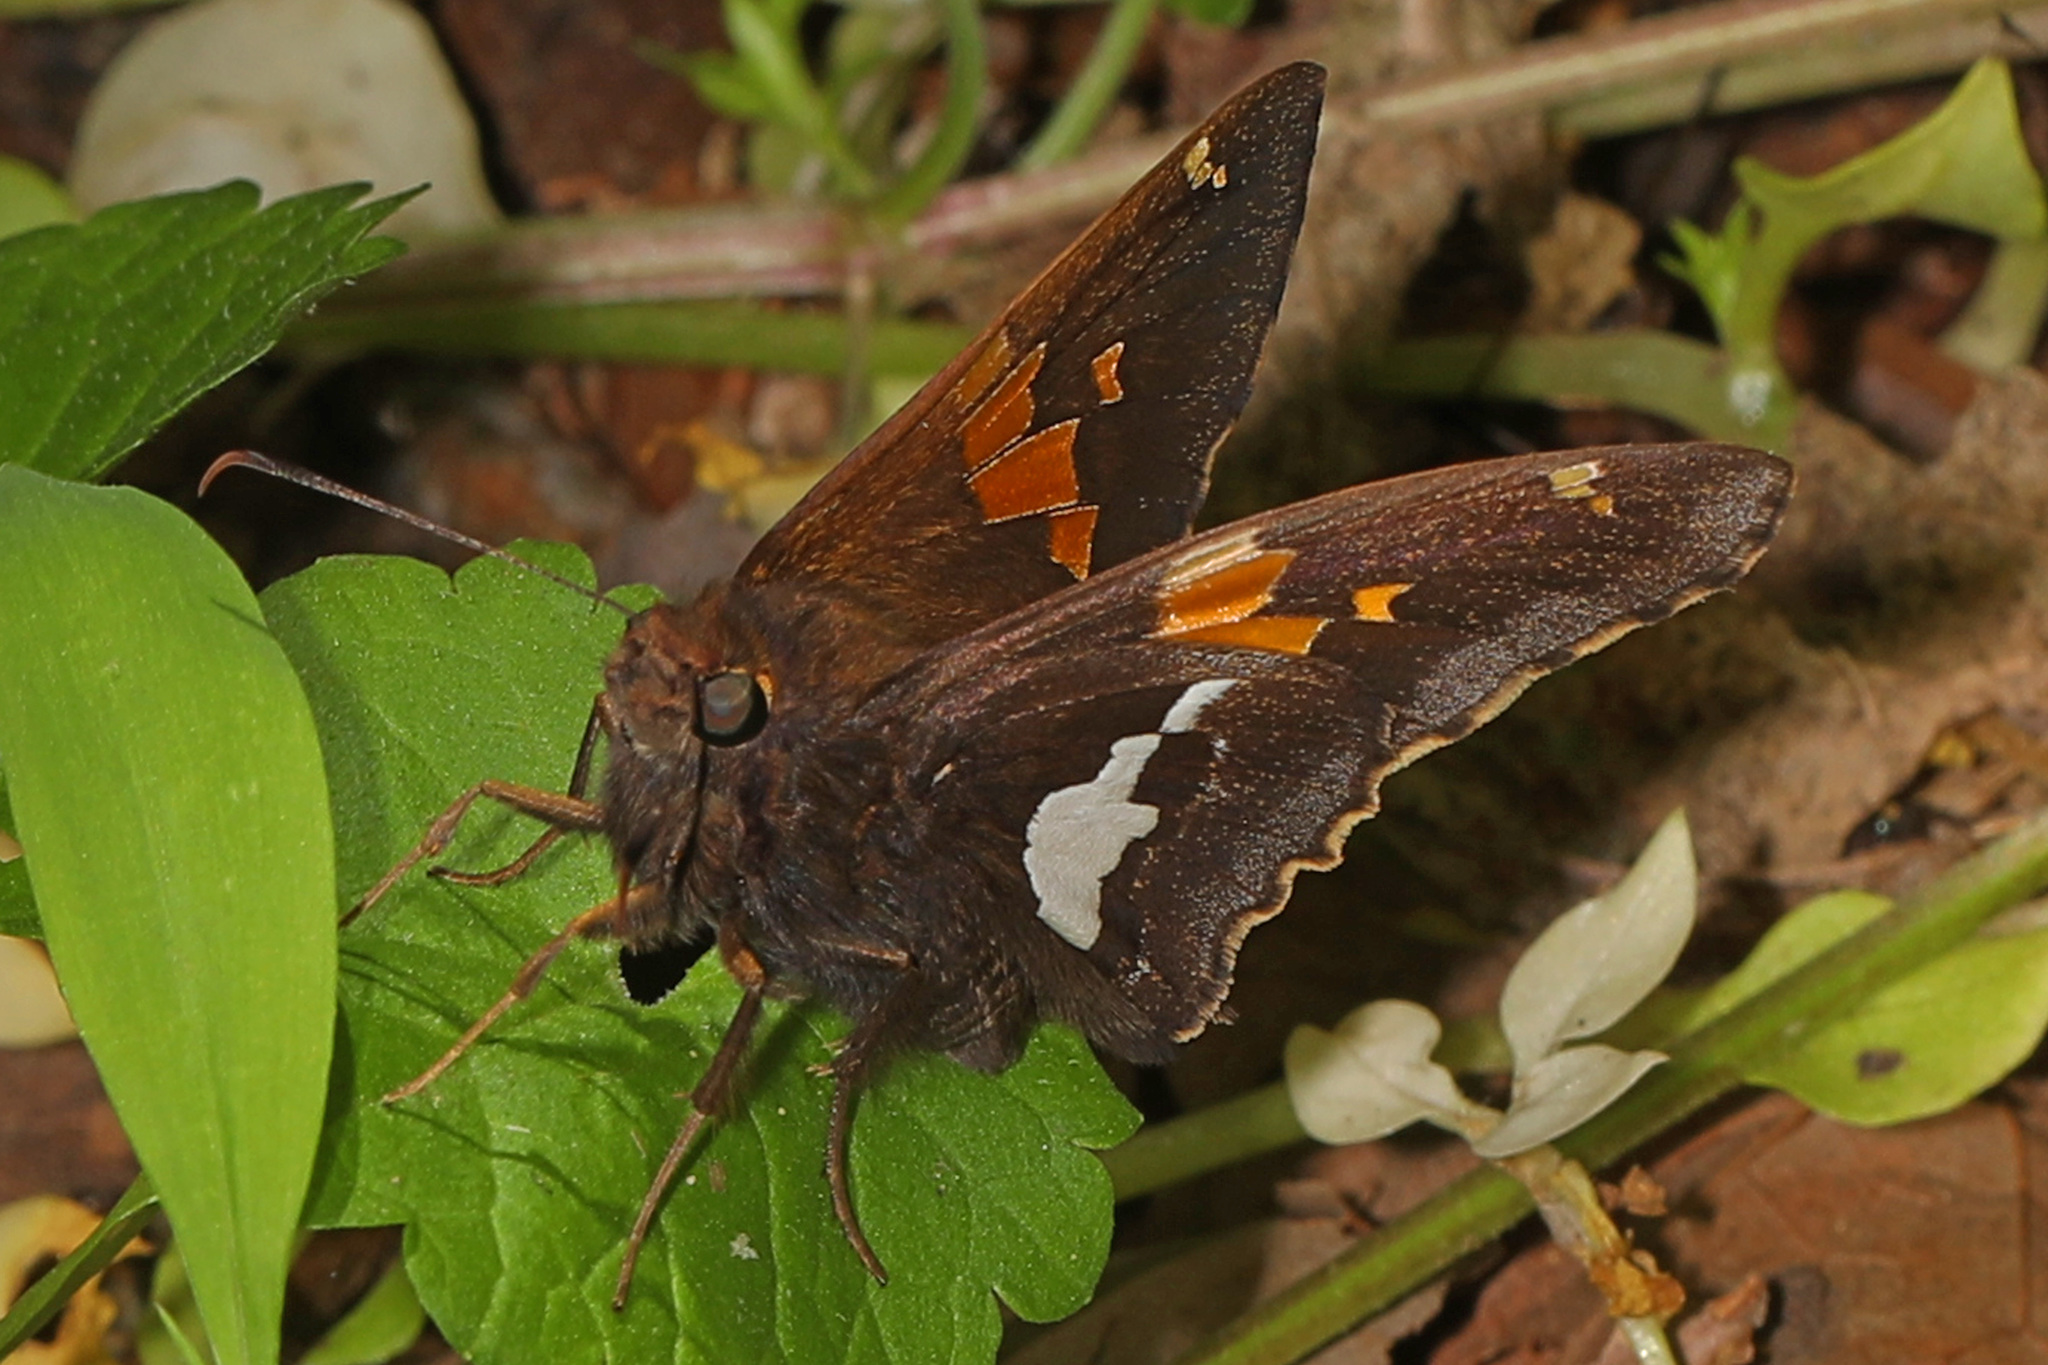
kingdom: Animalia
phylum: Arthropoda
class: Insecta
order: Lepidoptera
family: Hesperiidae
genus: Epargyreus
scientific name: Epargyreus clarus
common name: Silver-spotted skipper
